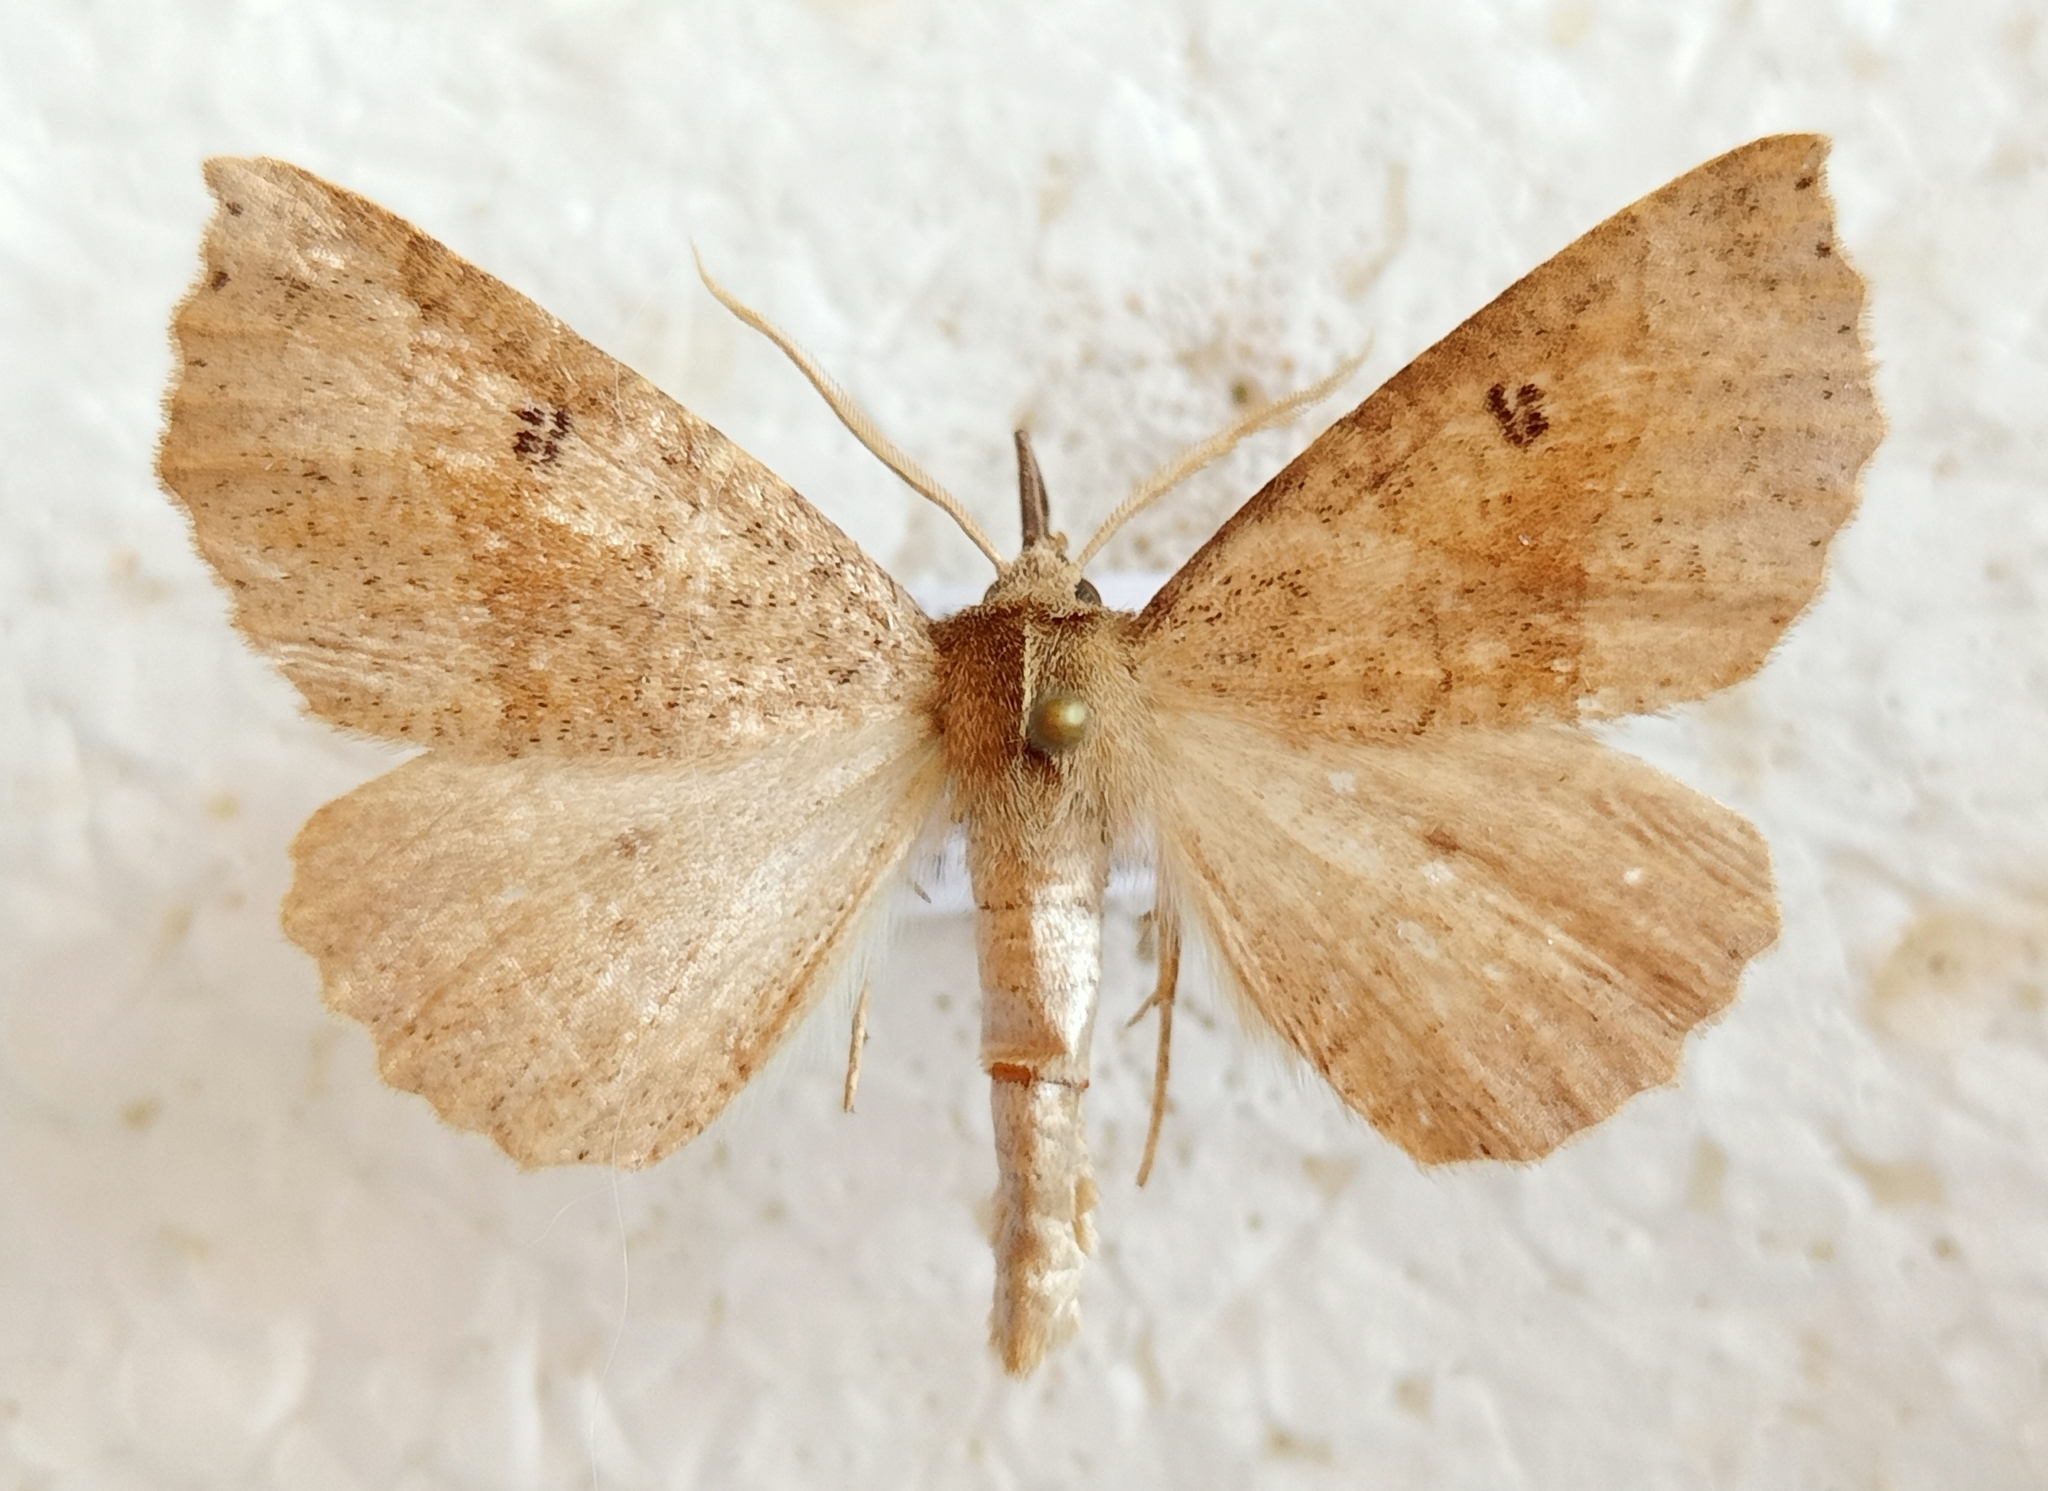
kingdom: Animalia
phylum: Arthropoda
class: Insecta
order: Lepidoptera
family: Geometridae
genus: Crocallis
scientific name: Crocallis dardoinaria
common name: Dusky scalloped oak
